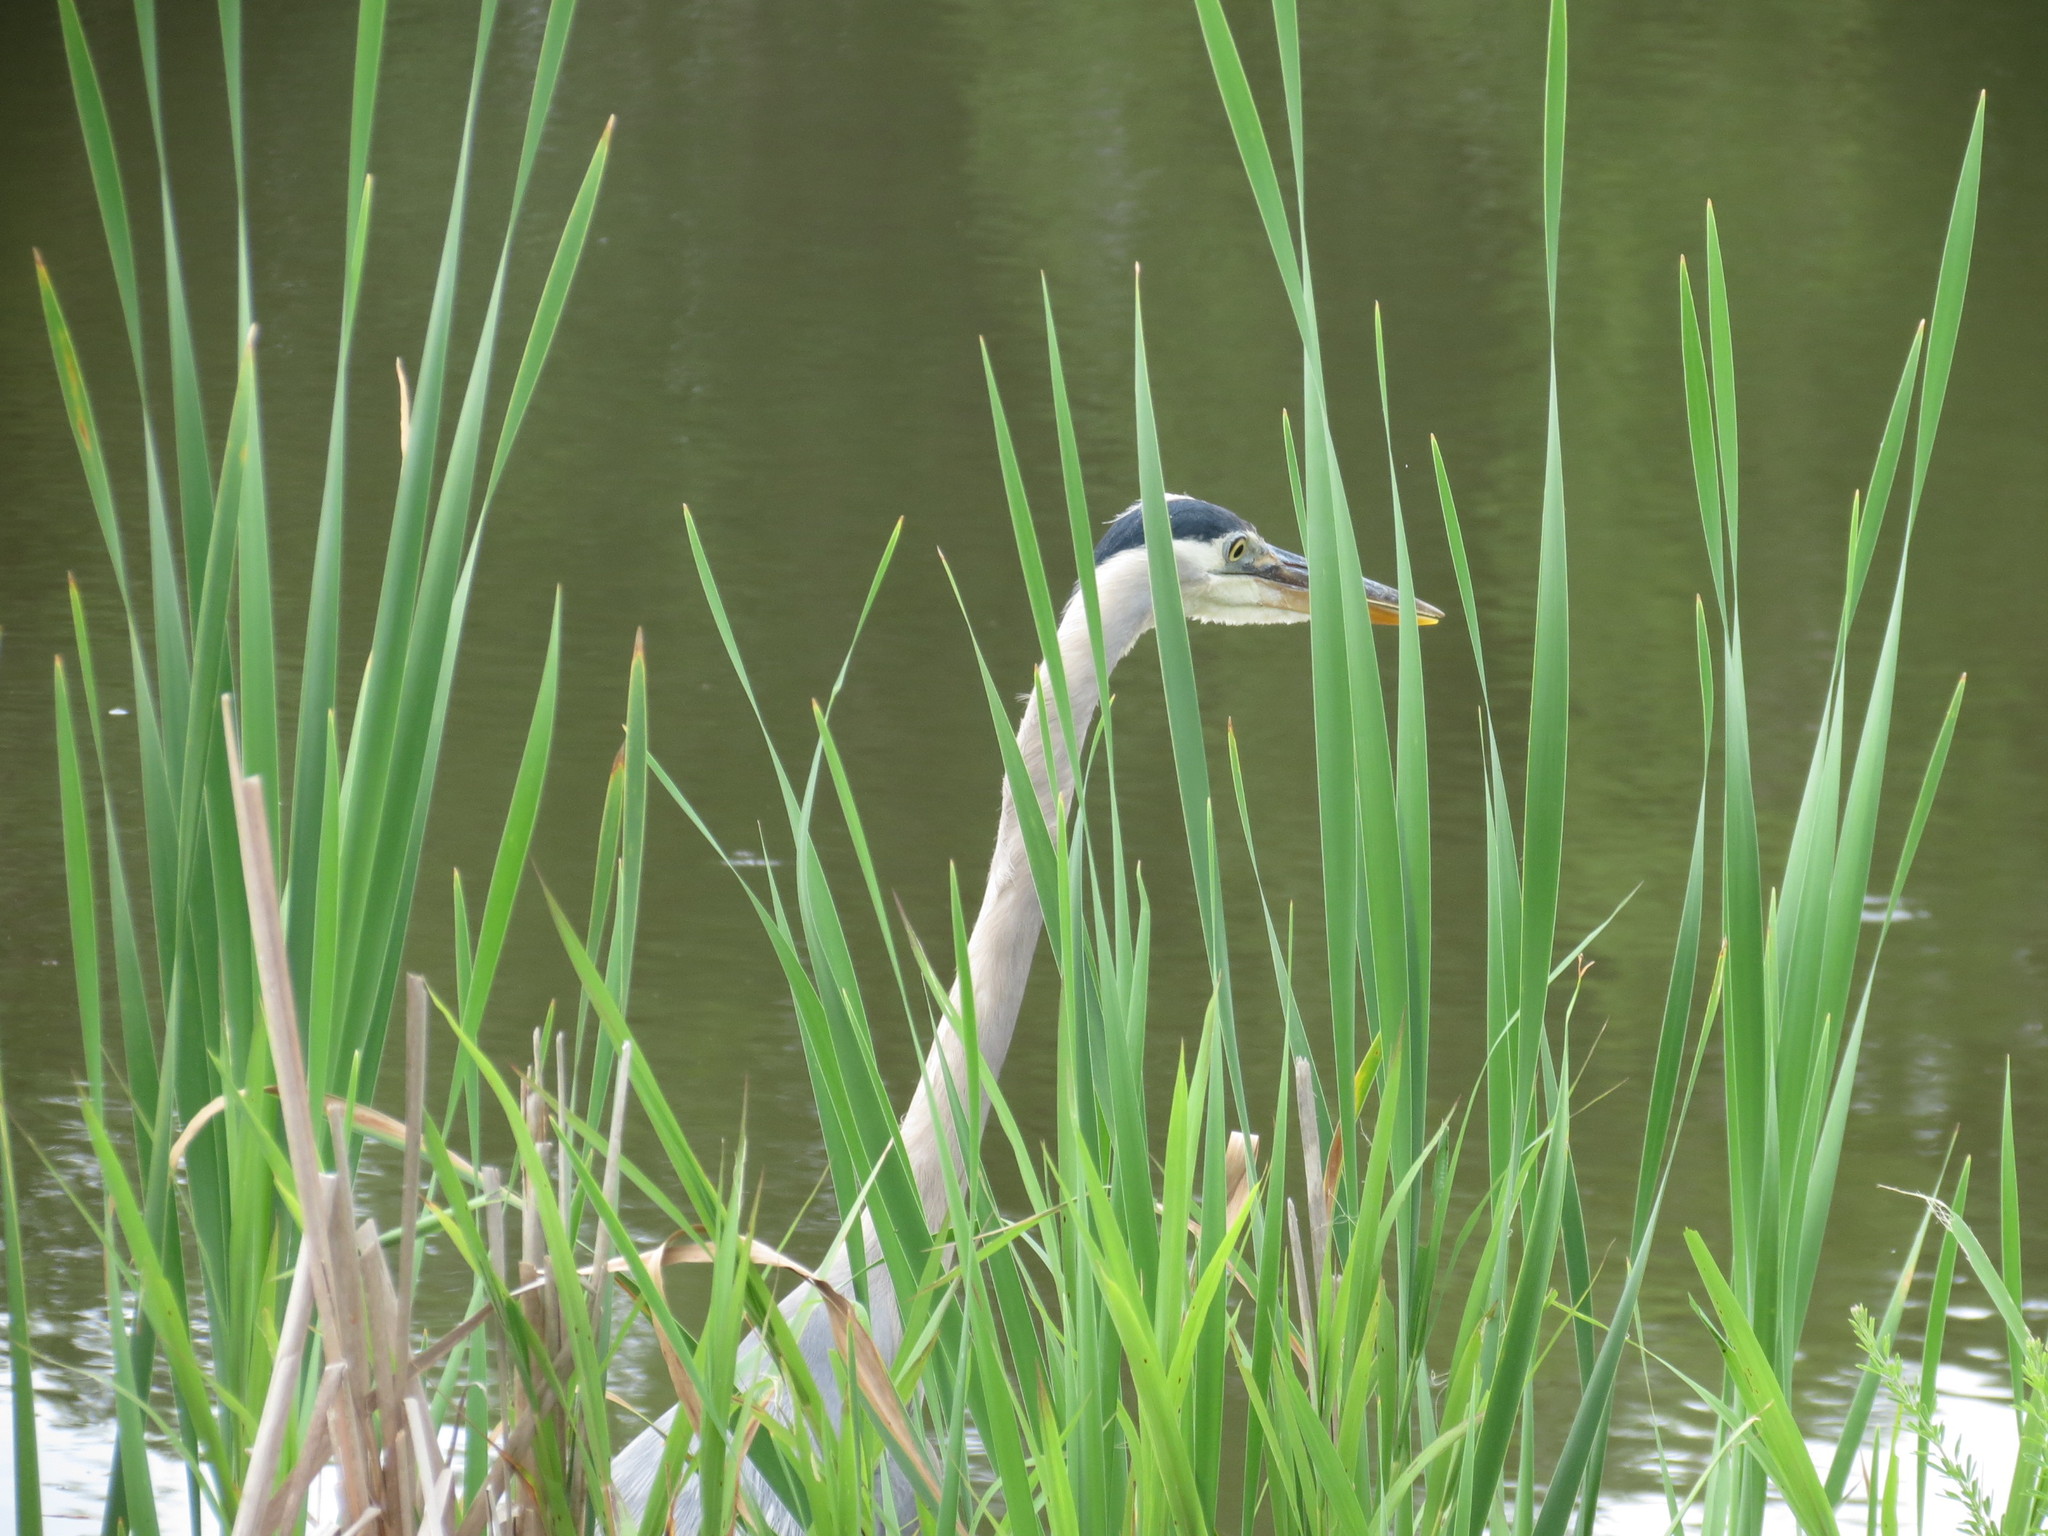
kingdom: Animalia
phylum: Chordata
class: Aves
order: Pelecaniformes
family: Ardeidae
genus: Ardea
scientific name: Ardea herodias
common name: Great blue heron
